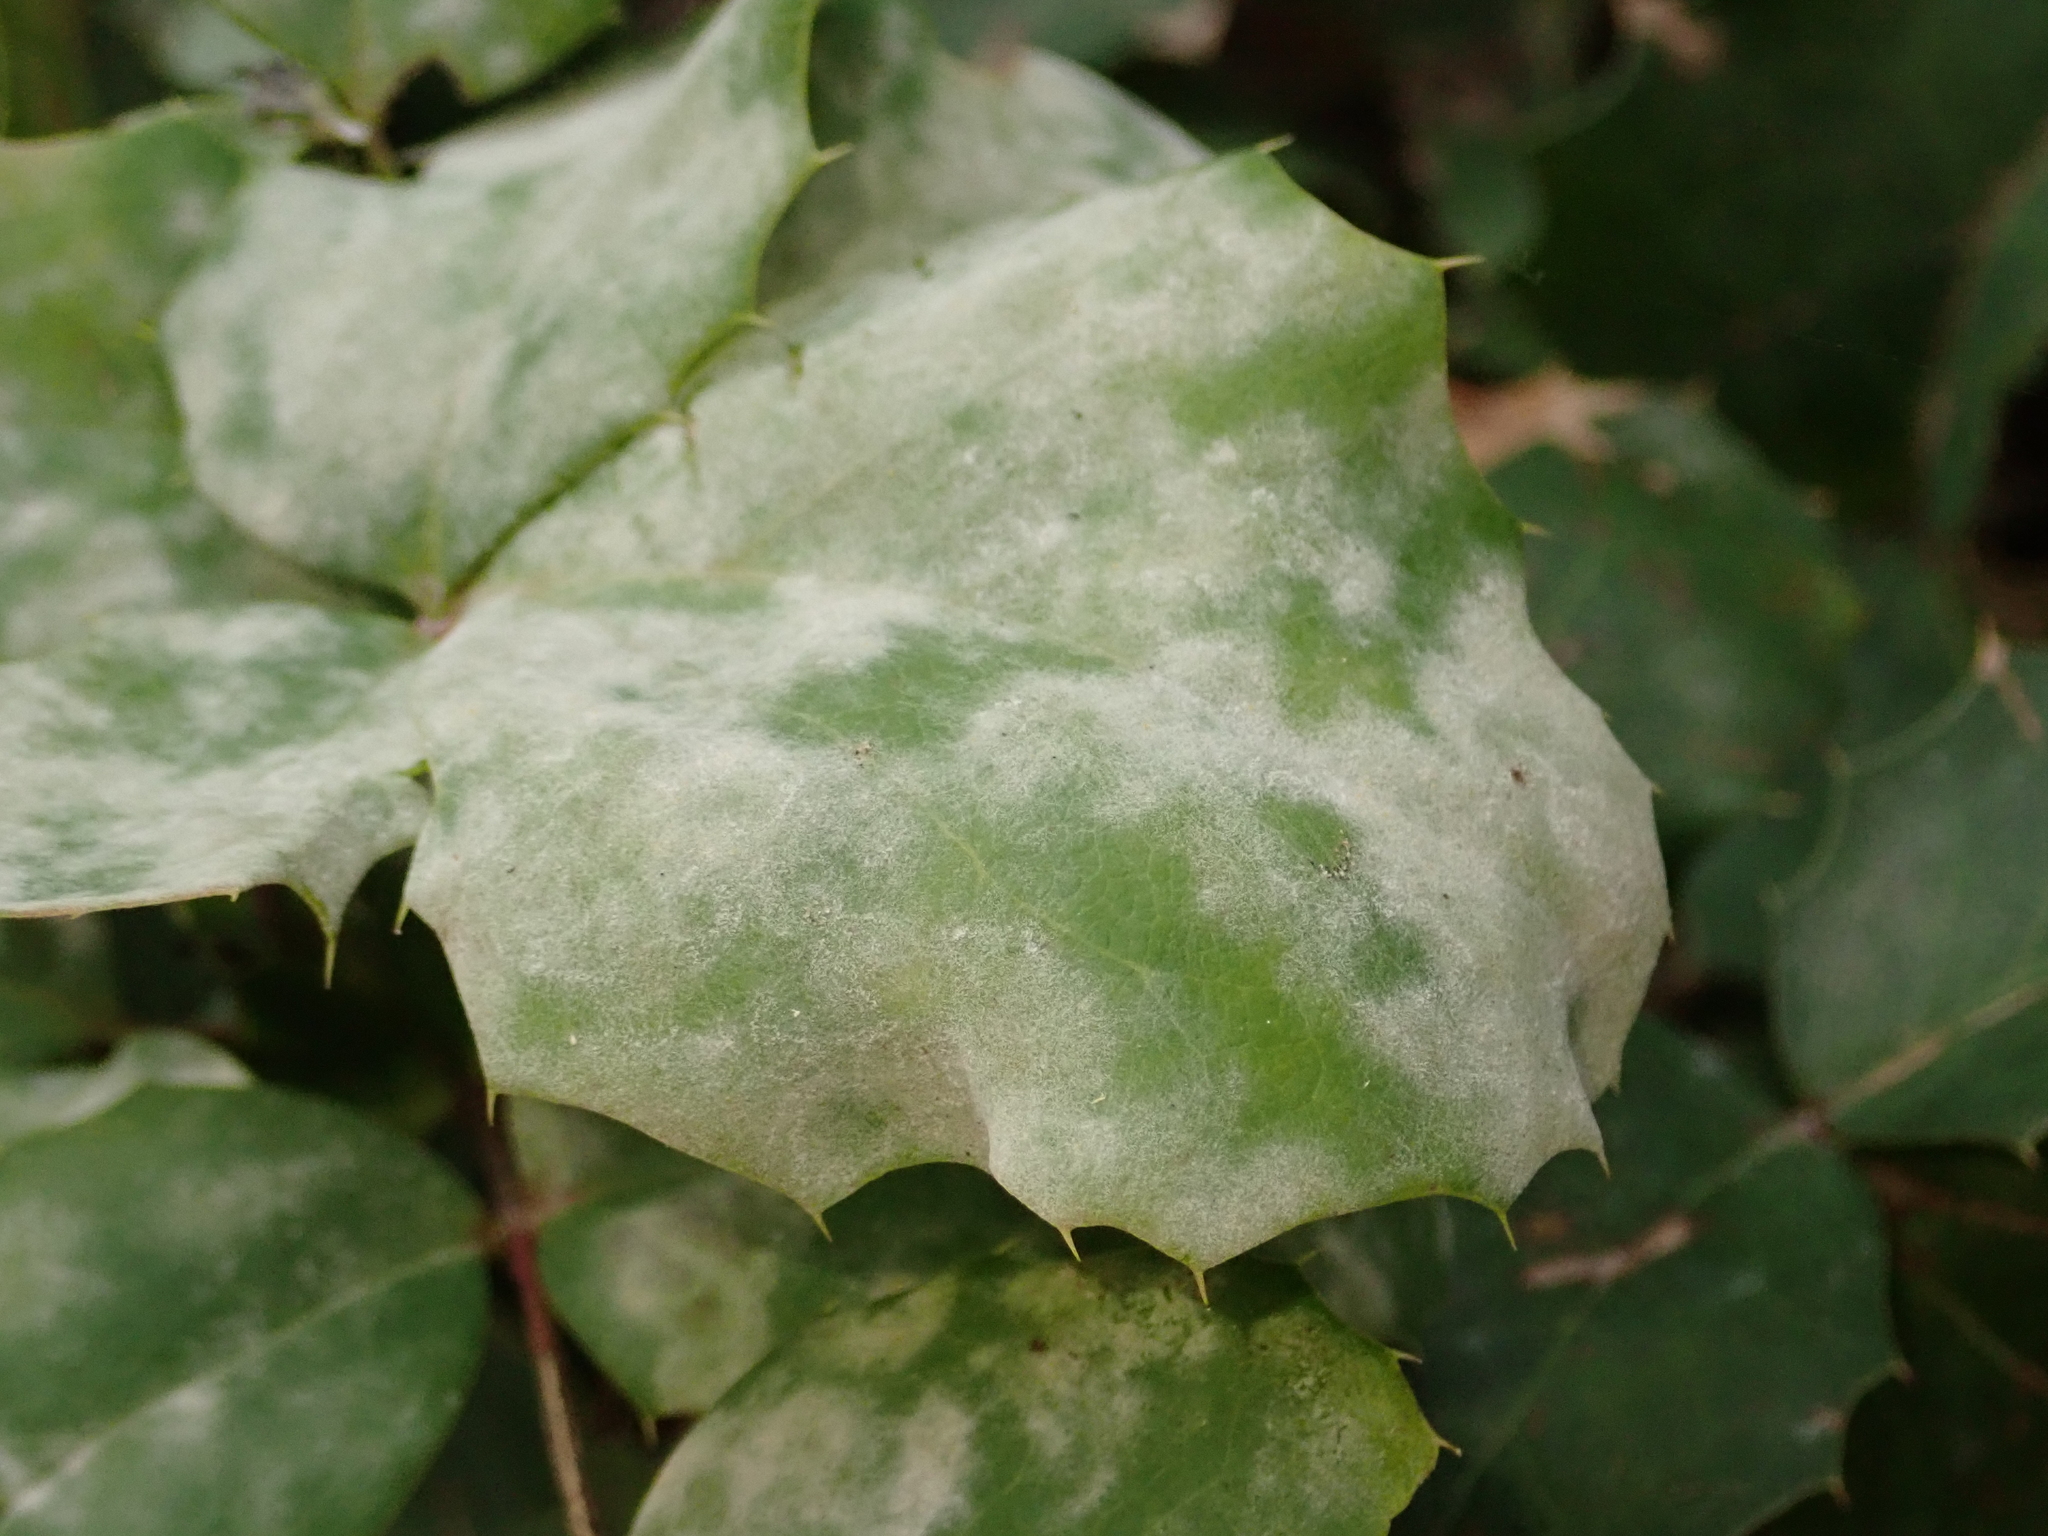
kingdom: Fungi
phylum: Ascomycota
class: Leotiomycetes
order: Helotiales
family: Erysiphaceae
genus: Erysiphe
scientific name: Erysiphe berberidis
